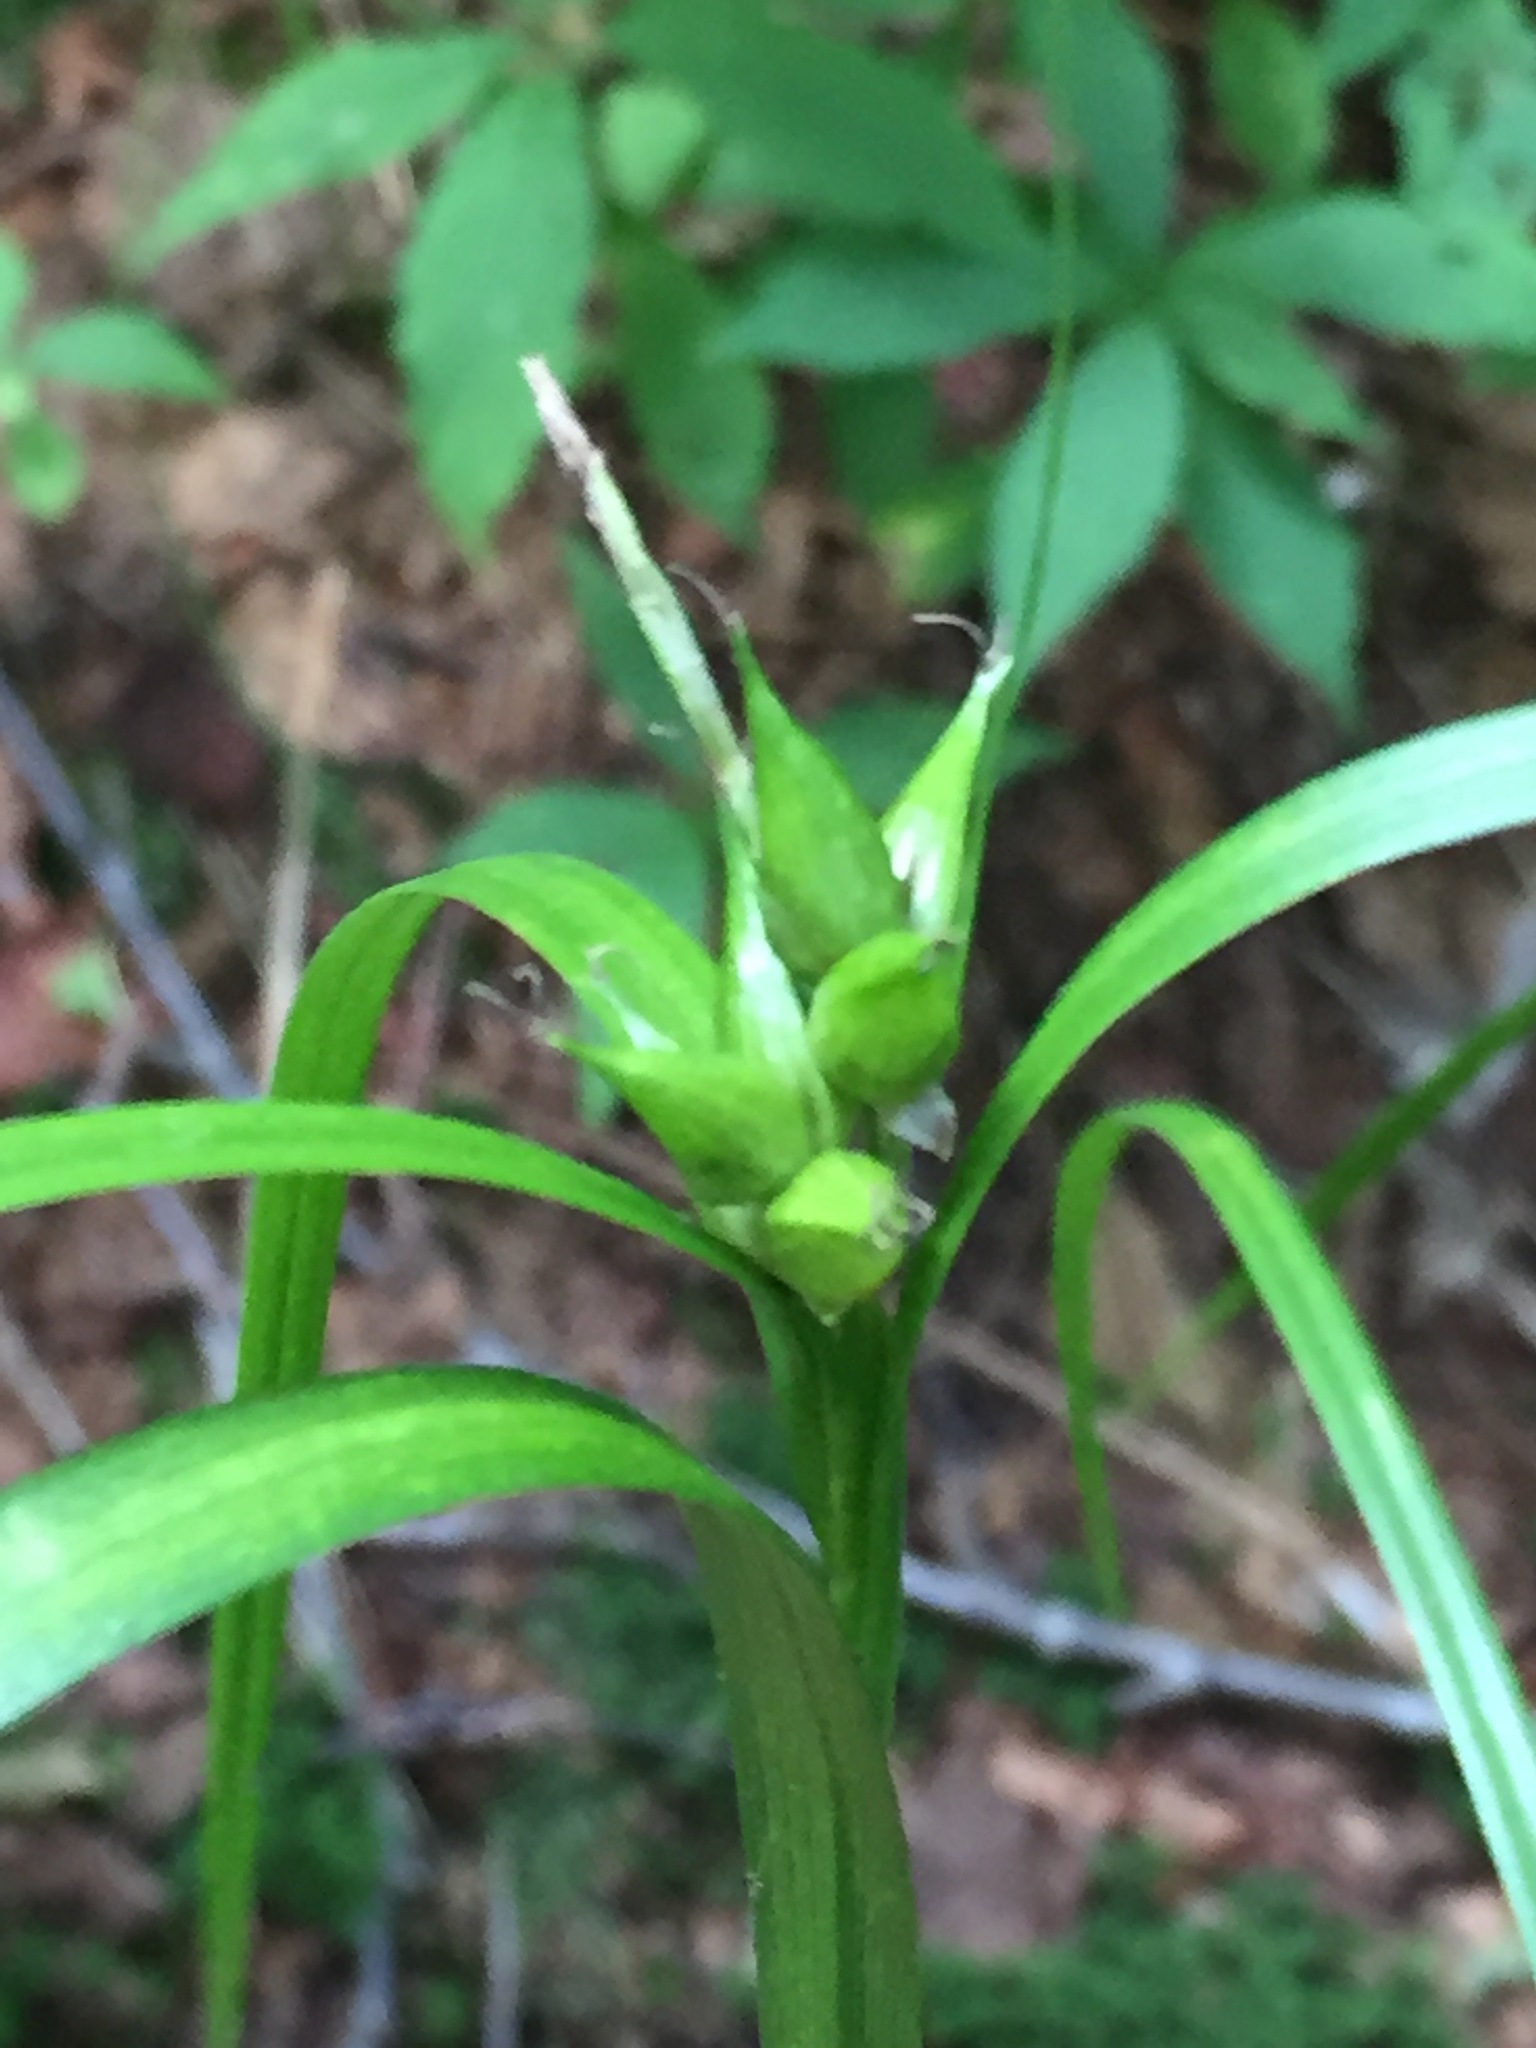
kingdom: Plantae
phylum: Tracheophyta
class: Liliopsida
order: Poales
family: Cyperaceae
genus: Carex
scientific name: Carex intumescens
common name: Greater bladder sedge
